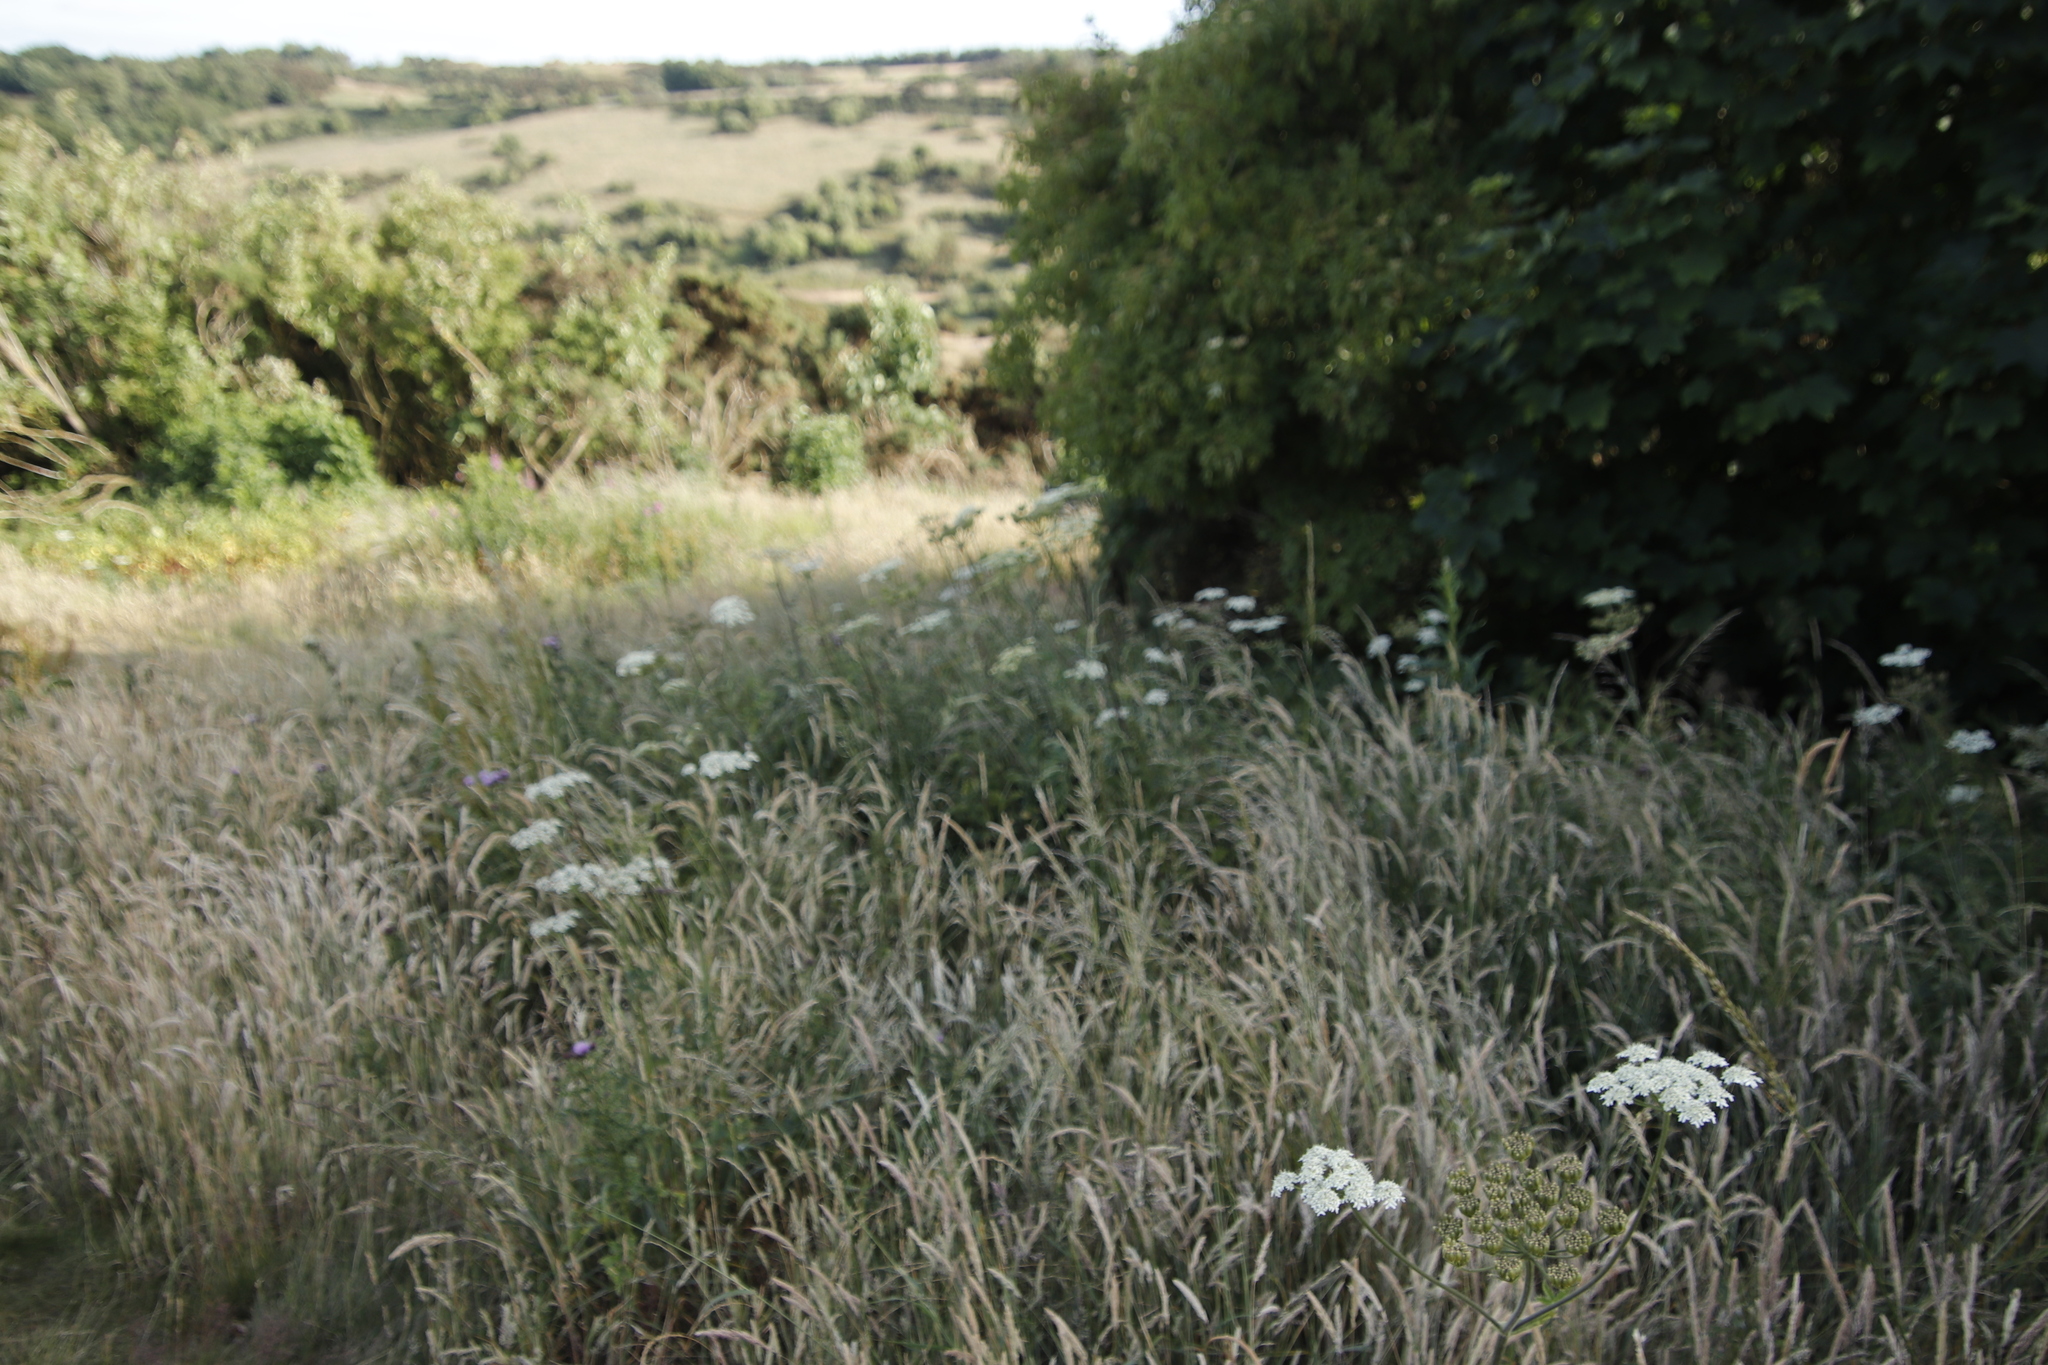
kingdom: Plantae
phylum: Tracheophyta
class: Magnoliopsida
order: Apiales
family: Apiaceae
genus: Heracleum
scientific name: Heracleum sphondylium
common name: Hogweed
